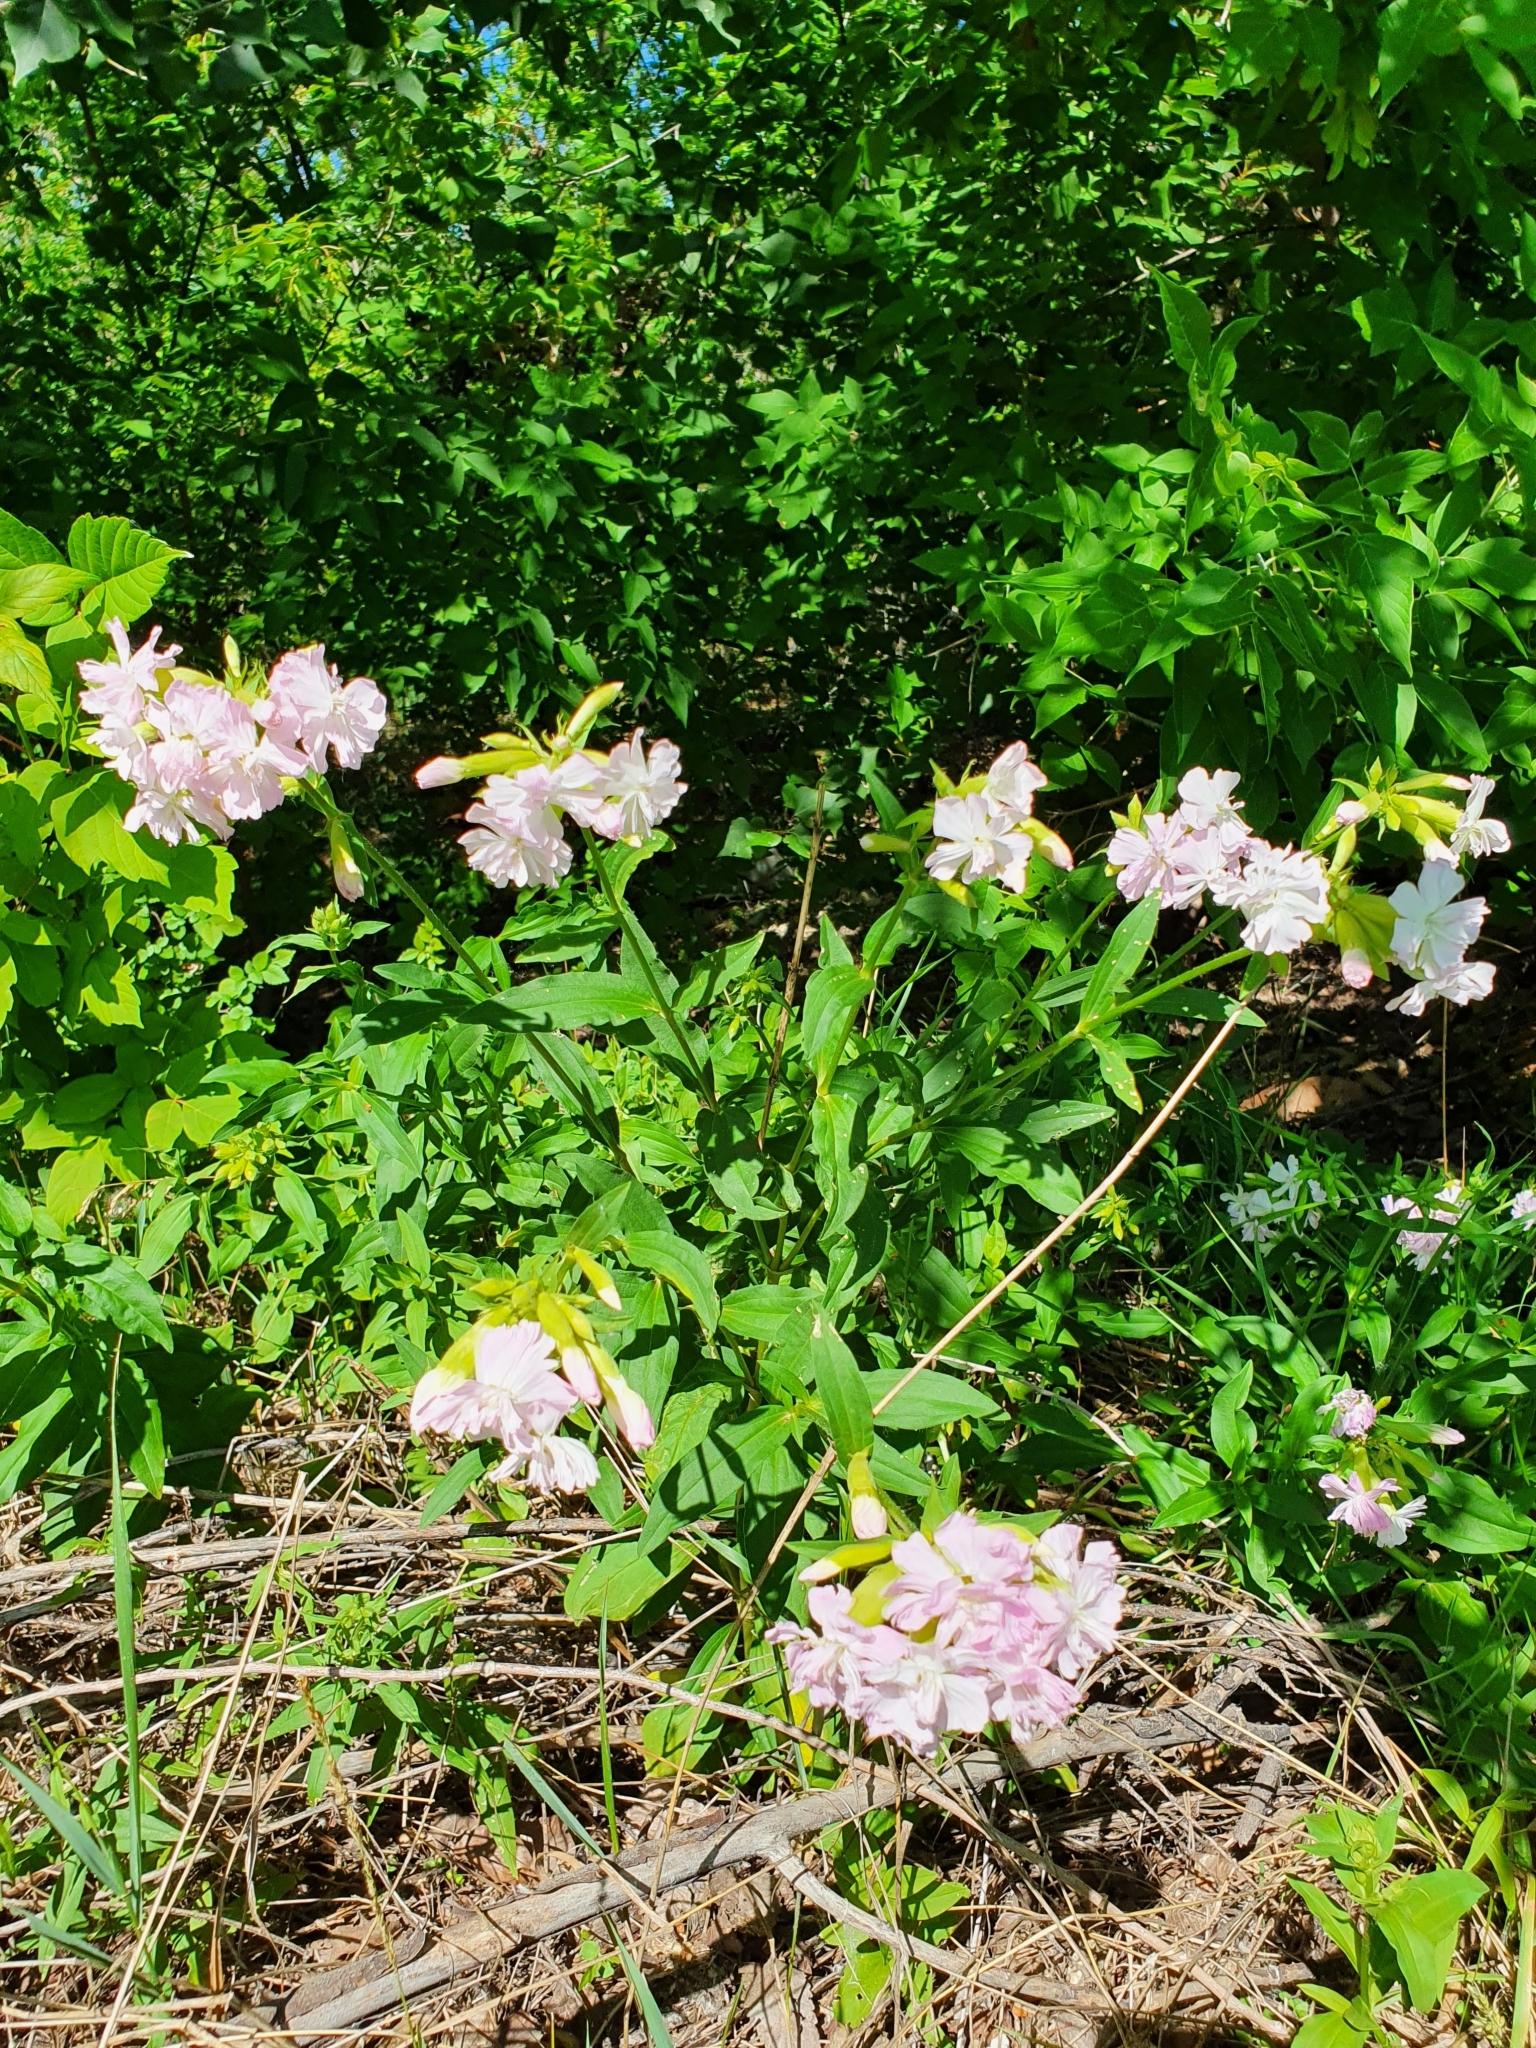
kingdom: Plantae
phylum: Tracheophyta
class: Magnoliopsida
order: Caryophyllales
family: Caryophyllaceae
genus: Saponaria
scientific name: Saponaria officinalis
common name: Soapwort
